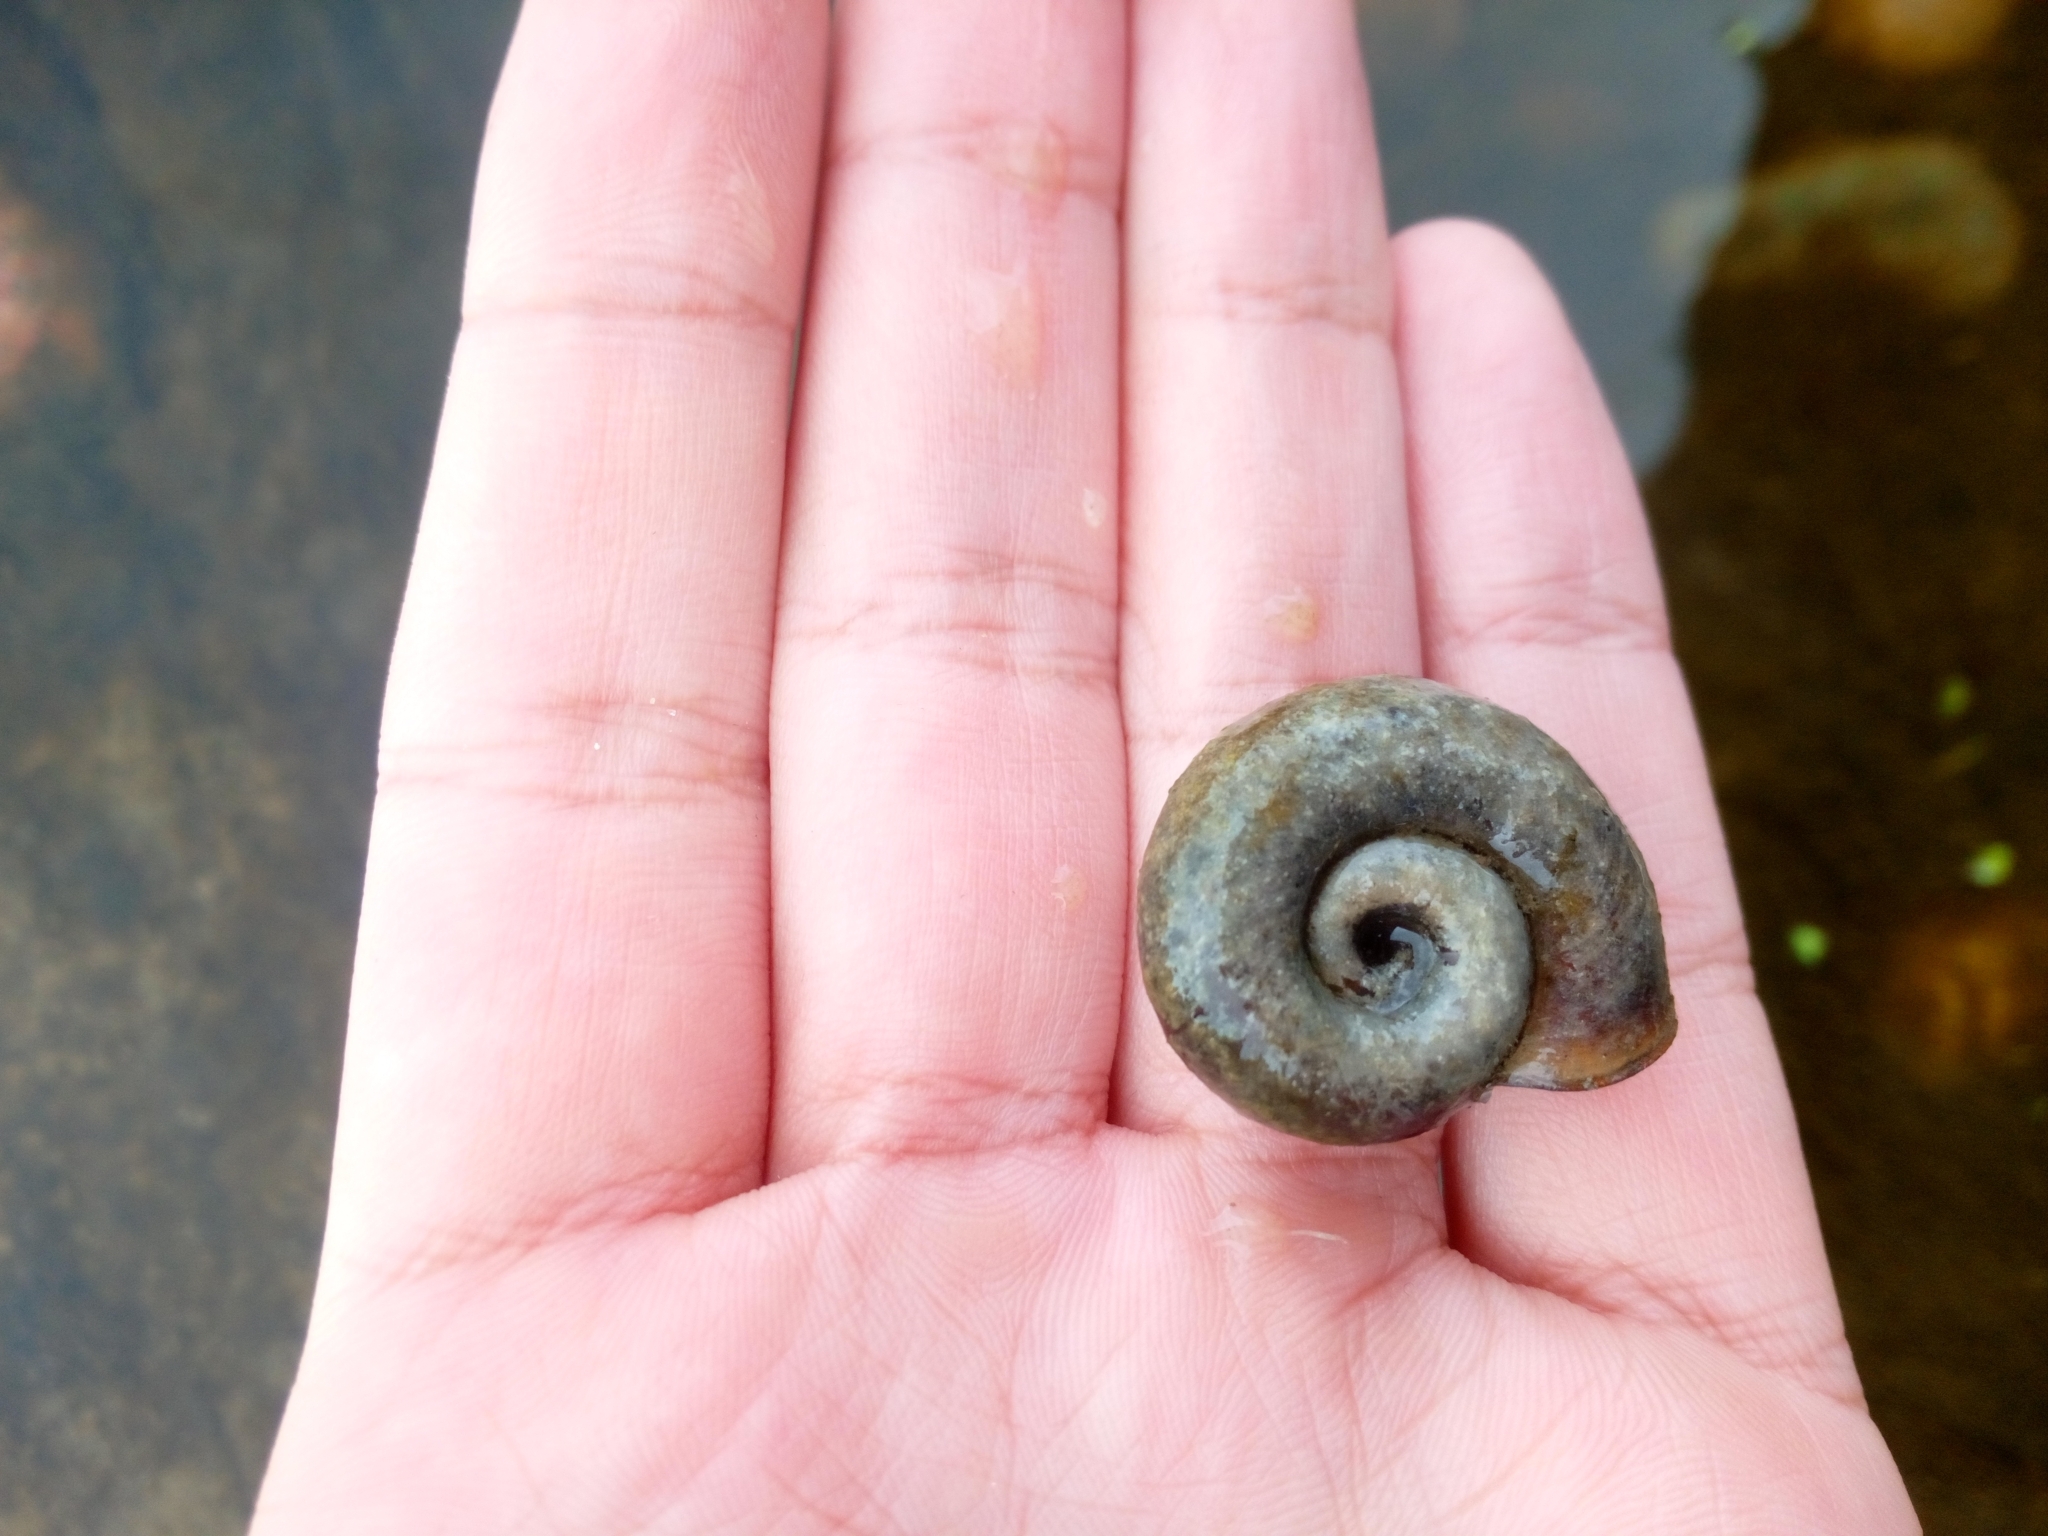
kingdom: Animalia
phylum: Mollusca
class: Gastropoda
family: Planorbidae
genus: Planorbarius
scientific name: Planorbarius corneus
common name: Great ramshorn
